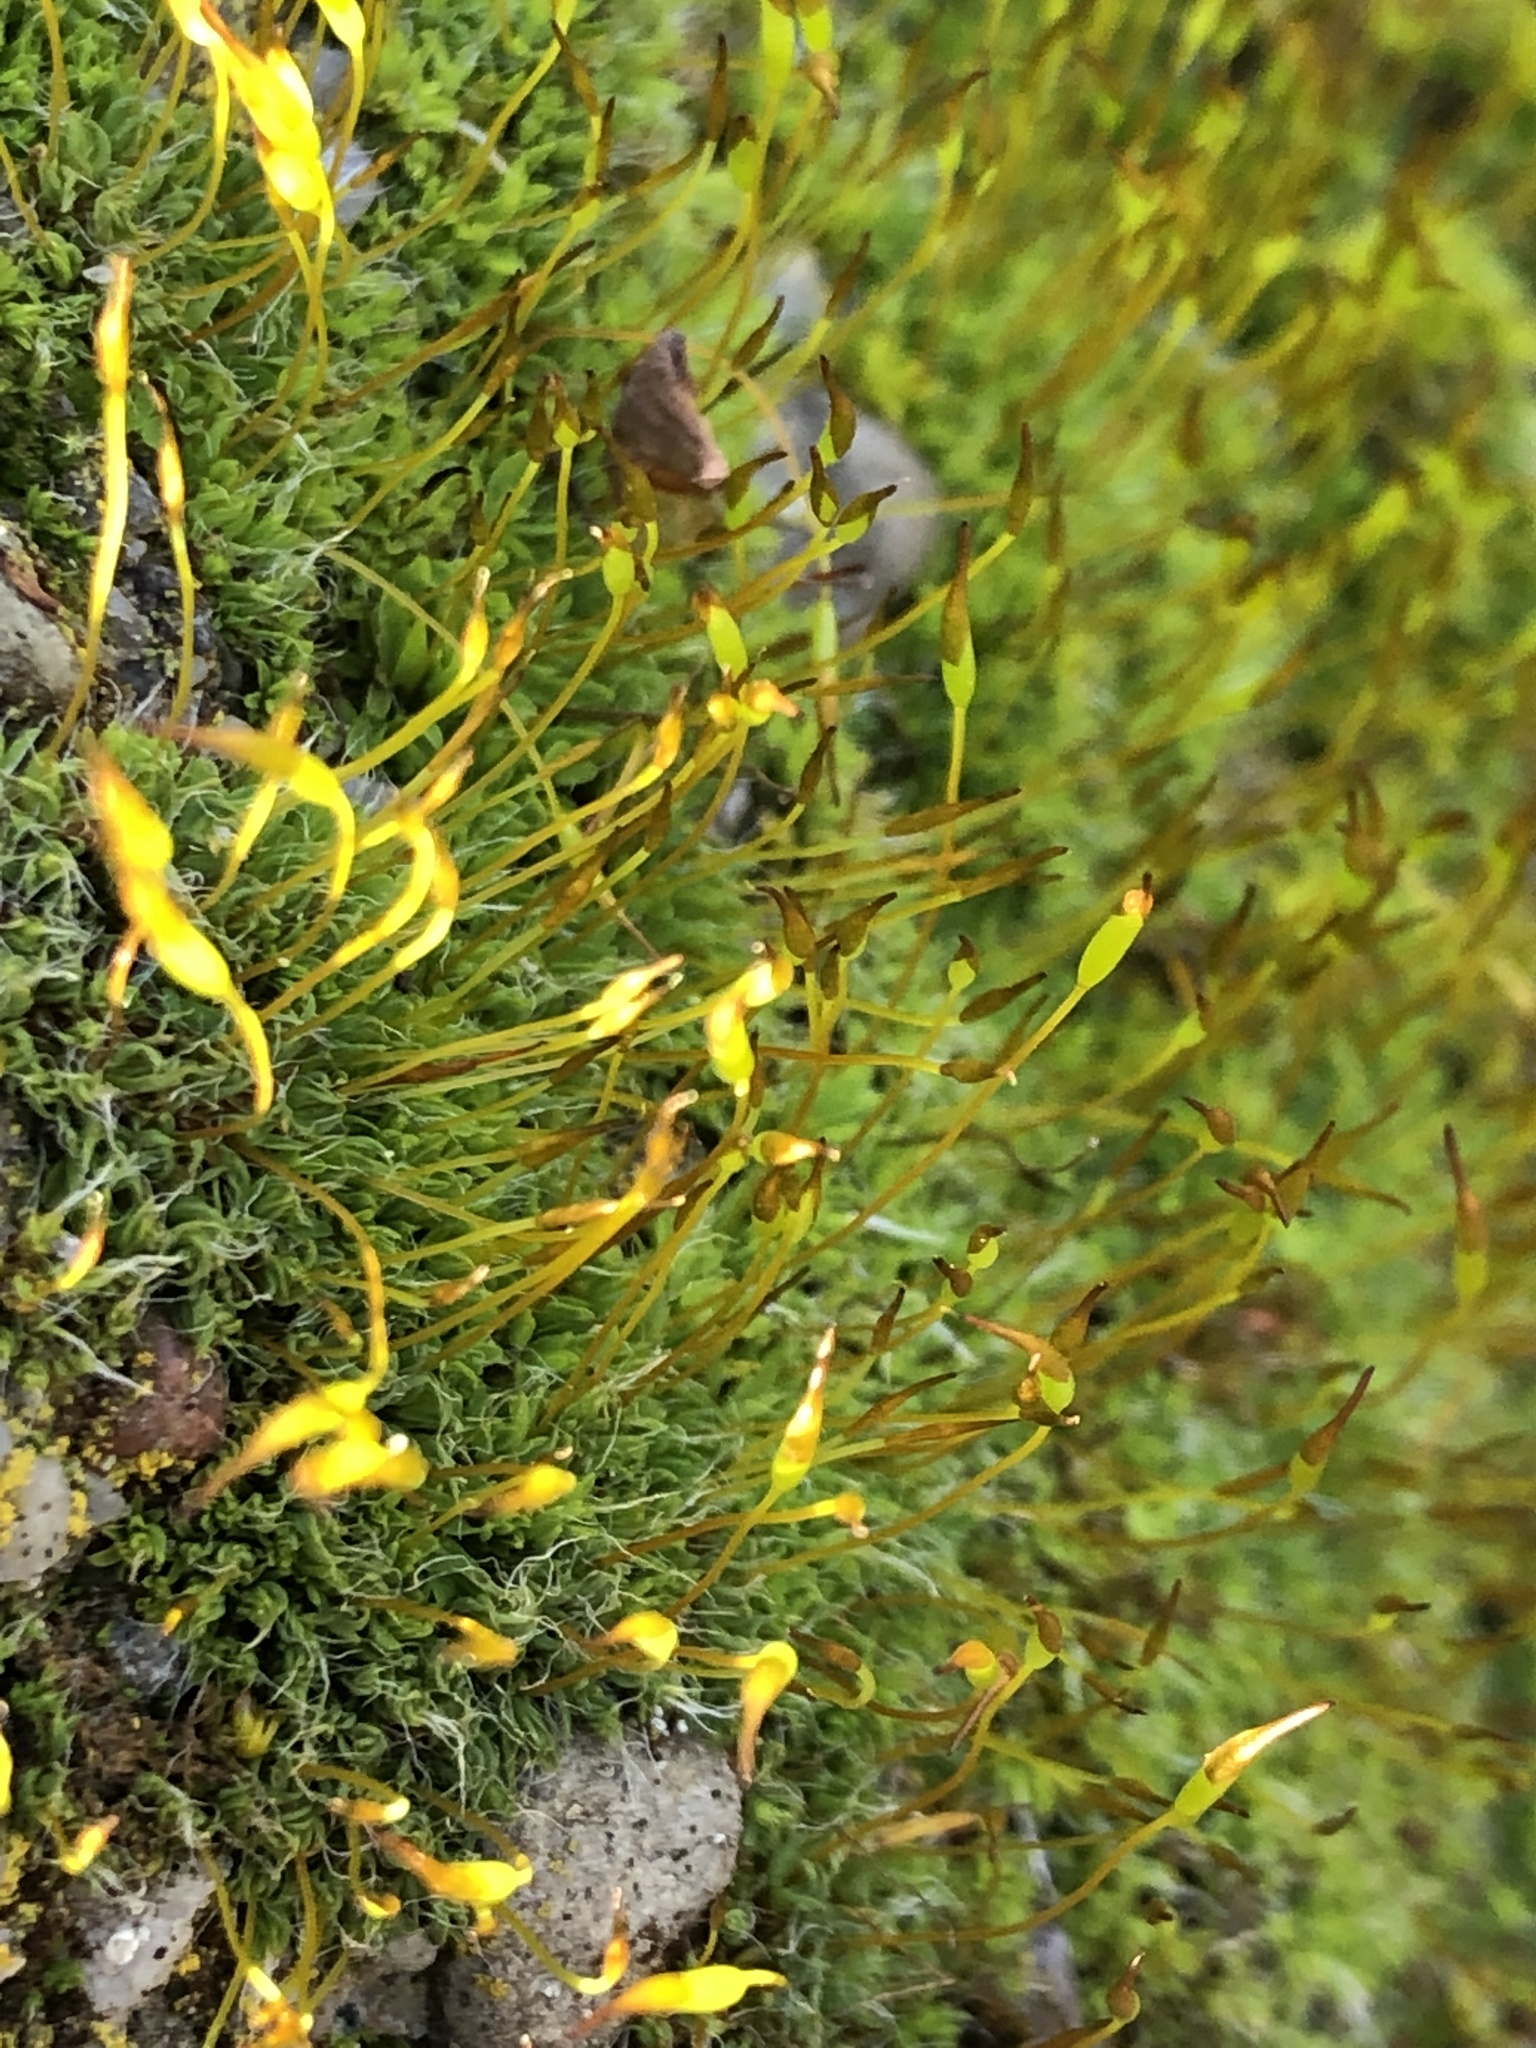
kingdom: Plantae
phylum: Bryophyta
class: Bryopsida
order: Pottiales
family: Pottiaceae
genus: Tortula
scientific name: Tortula muralis
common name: Wall screw-moss
